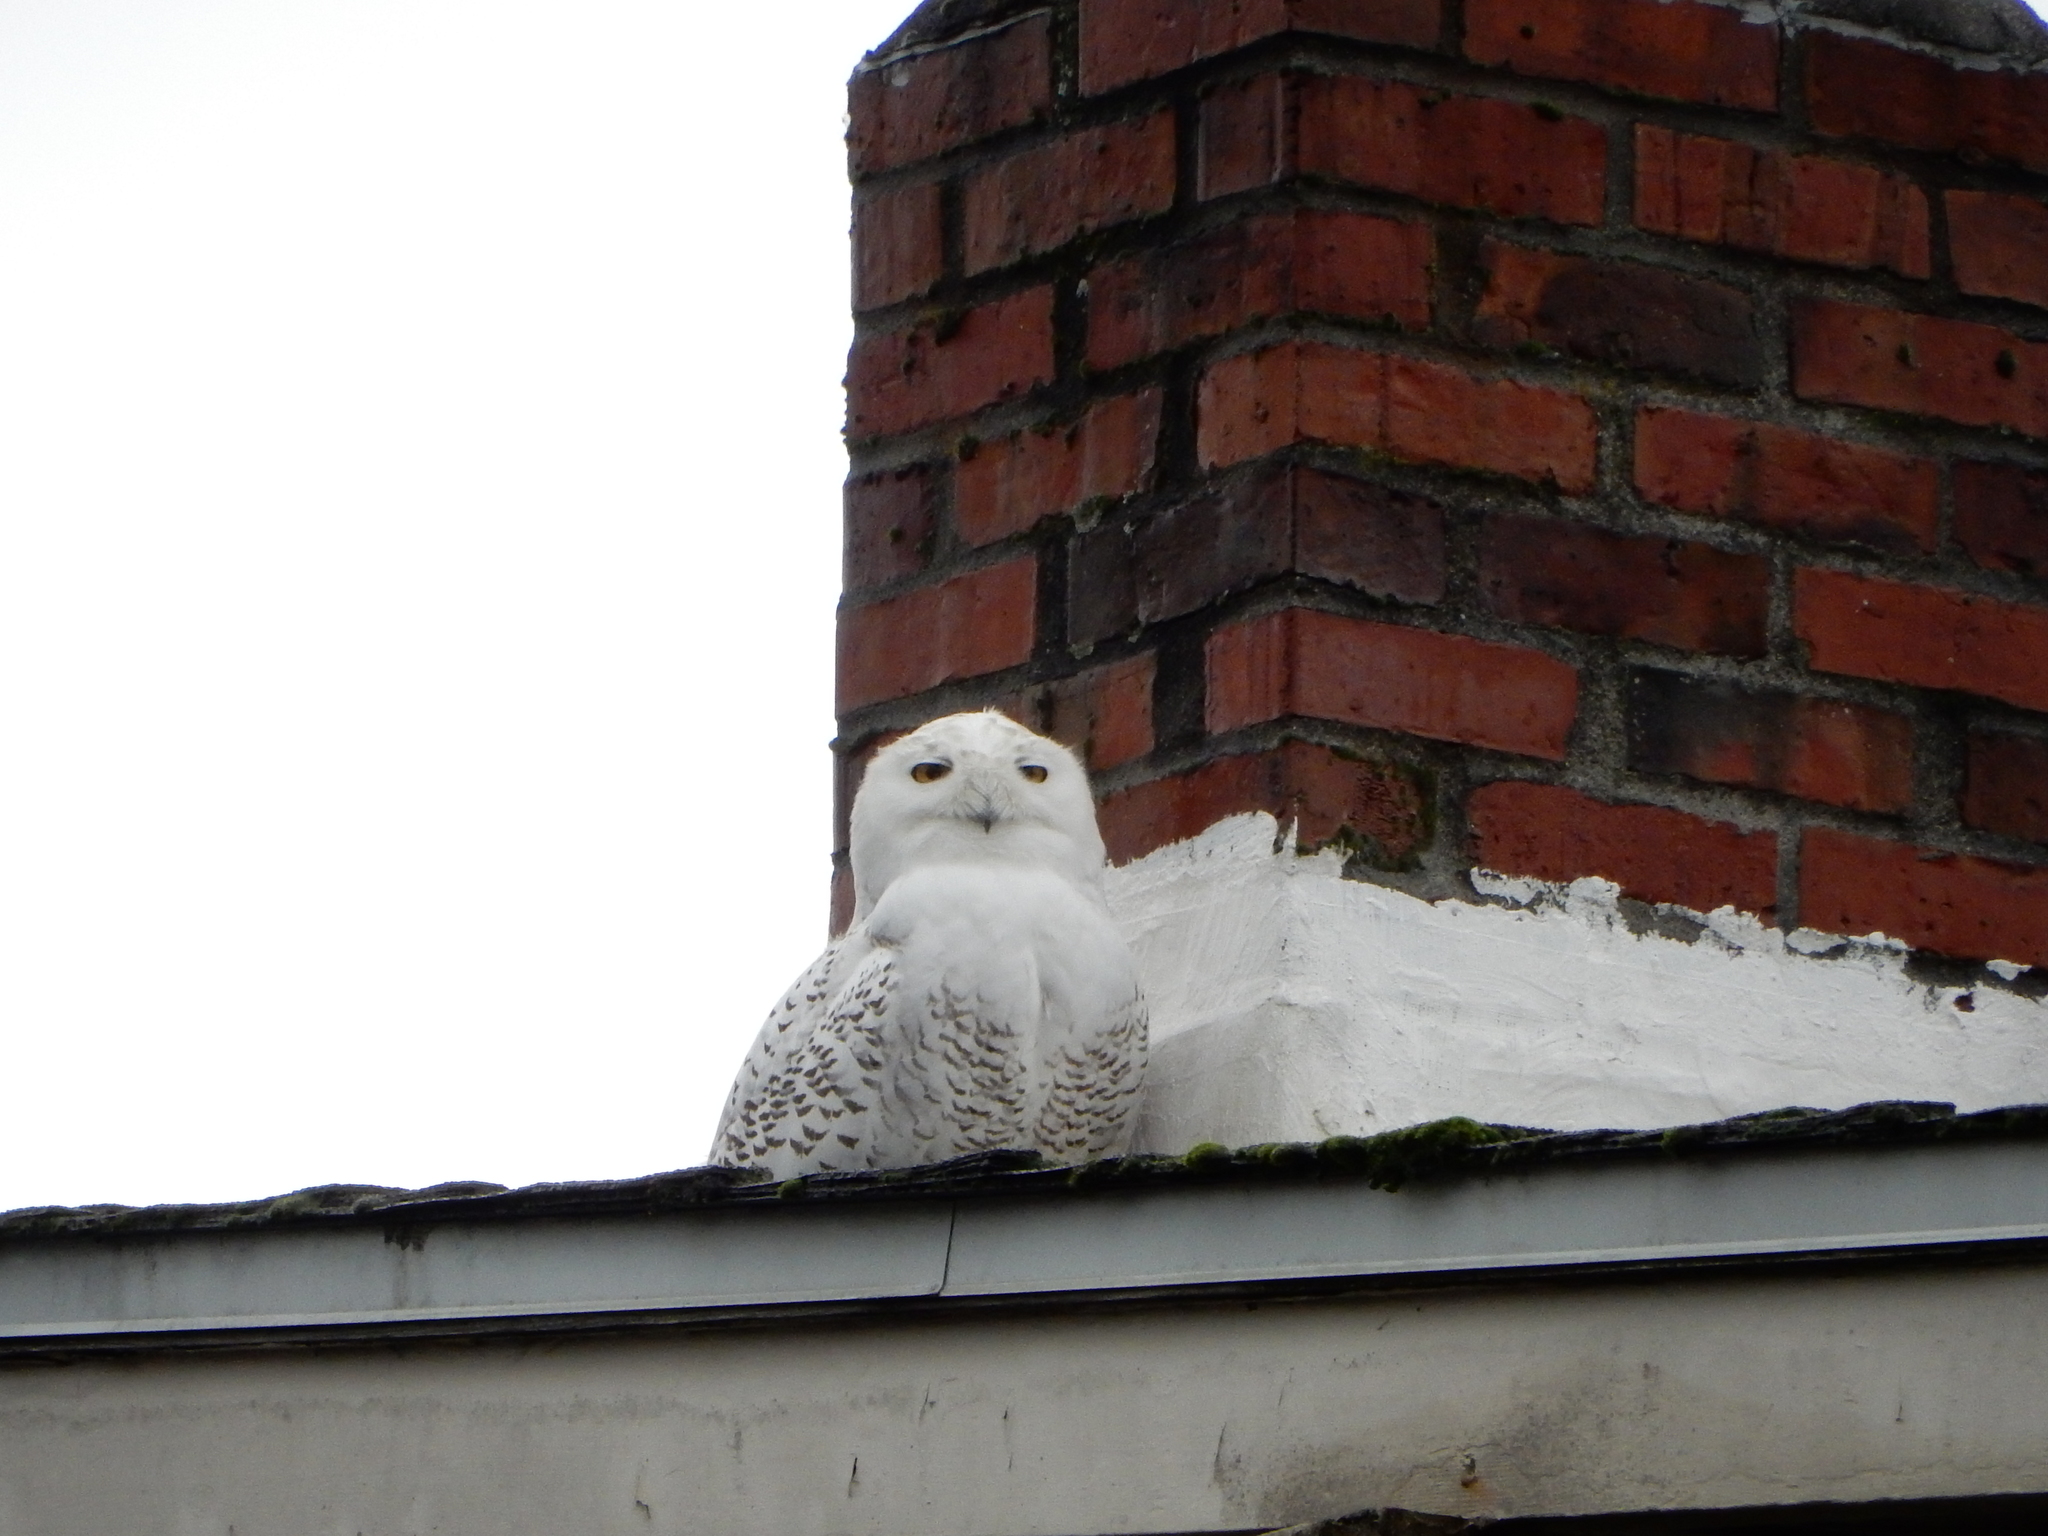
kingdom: Animalia
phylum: Chordata
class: Aves
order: Strigiformes
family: Strigidae
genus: Bubo
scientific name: Bubo scandiacus
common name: Snowy owl
